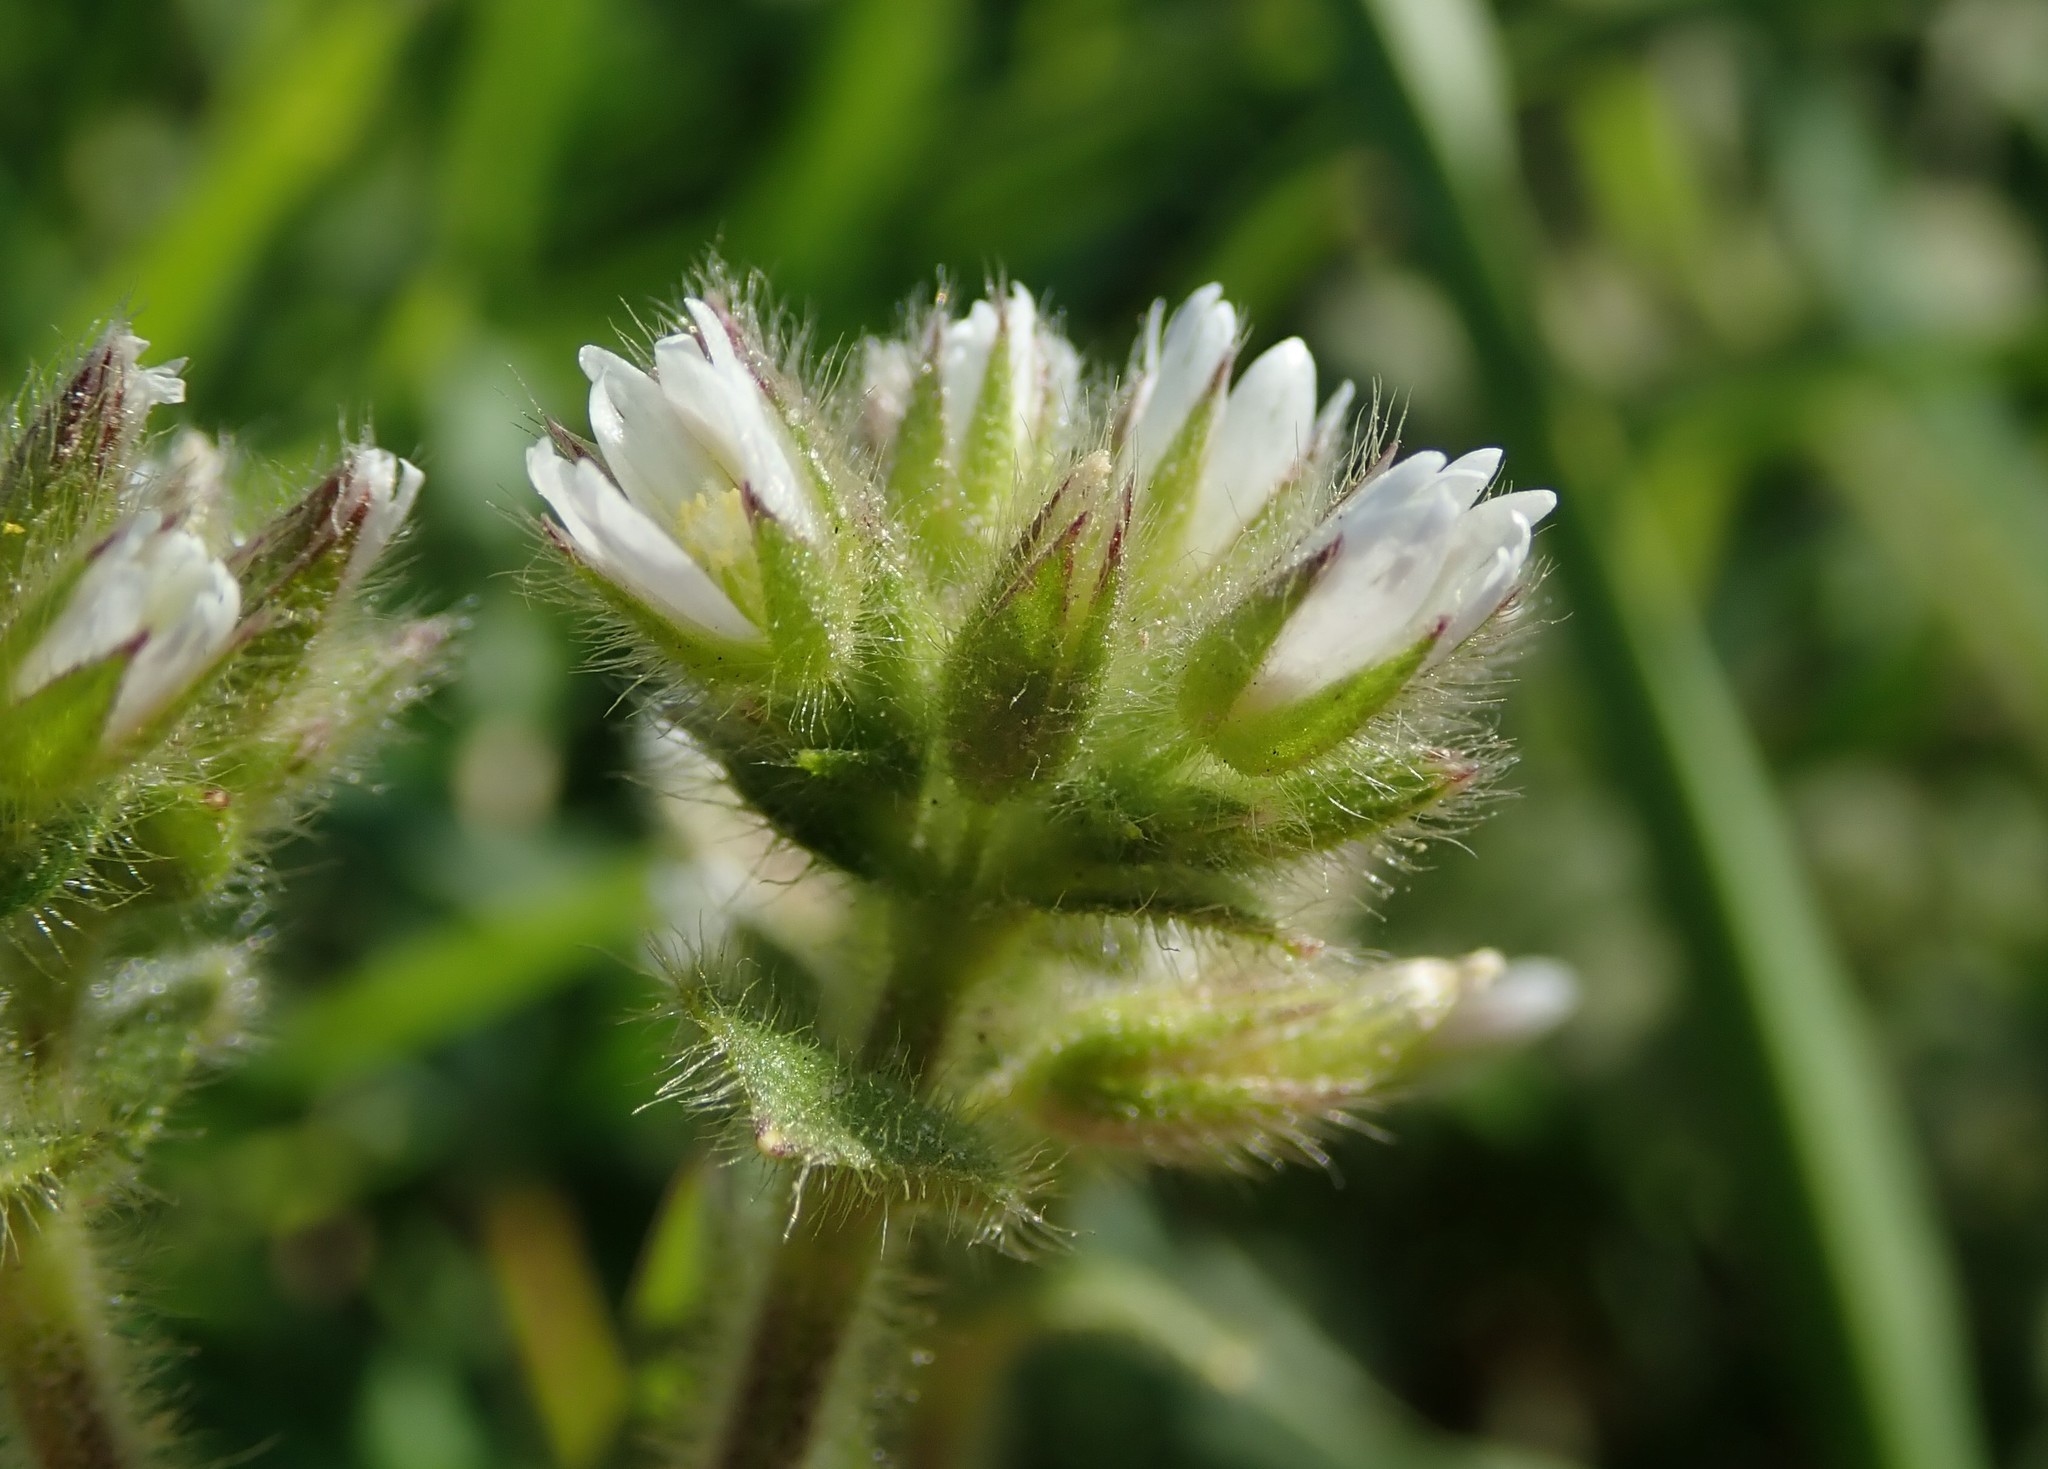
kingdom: Plantae
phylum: Tracheophyta
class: Magnoliopsida
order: Caryophyllales
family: Caryophyllaceae
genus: Cerastium
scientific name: Cerastium glomeratum
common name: Sticky chickweed
